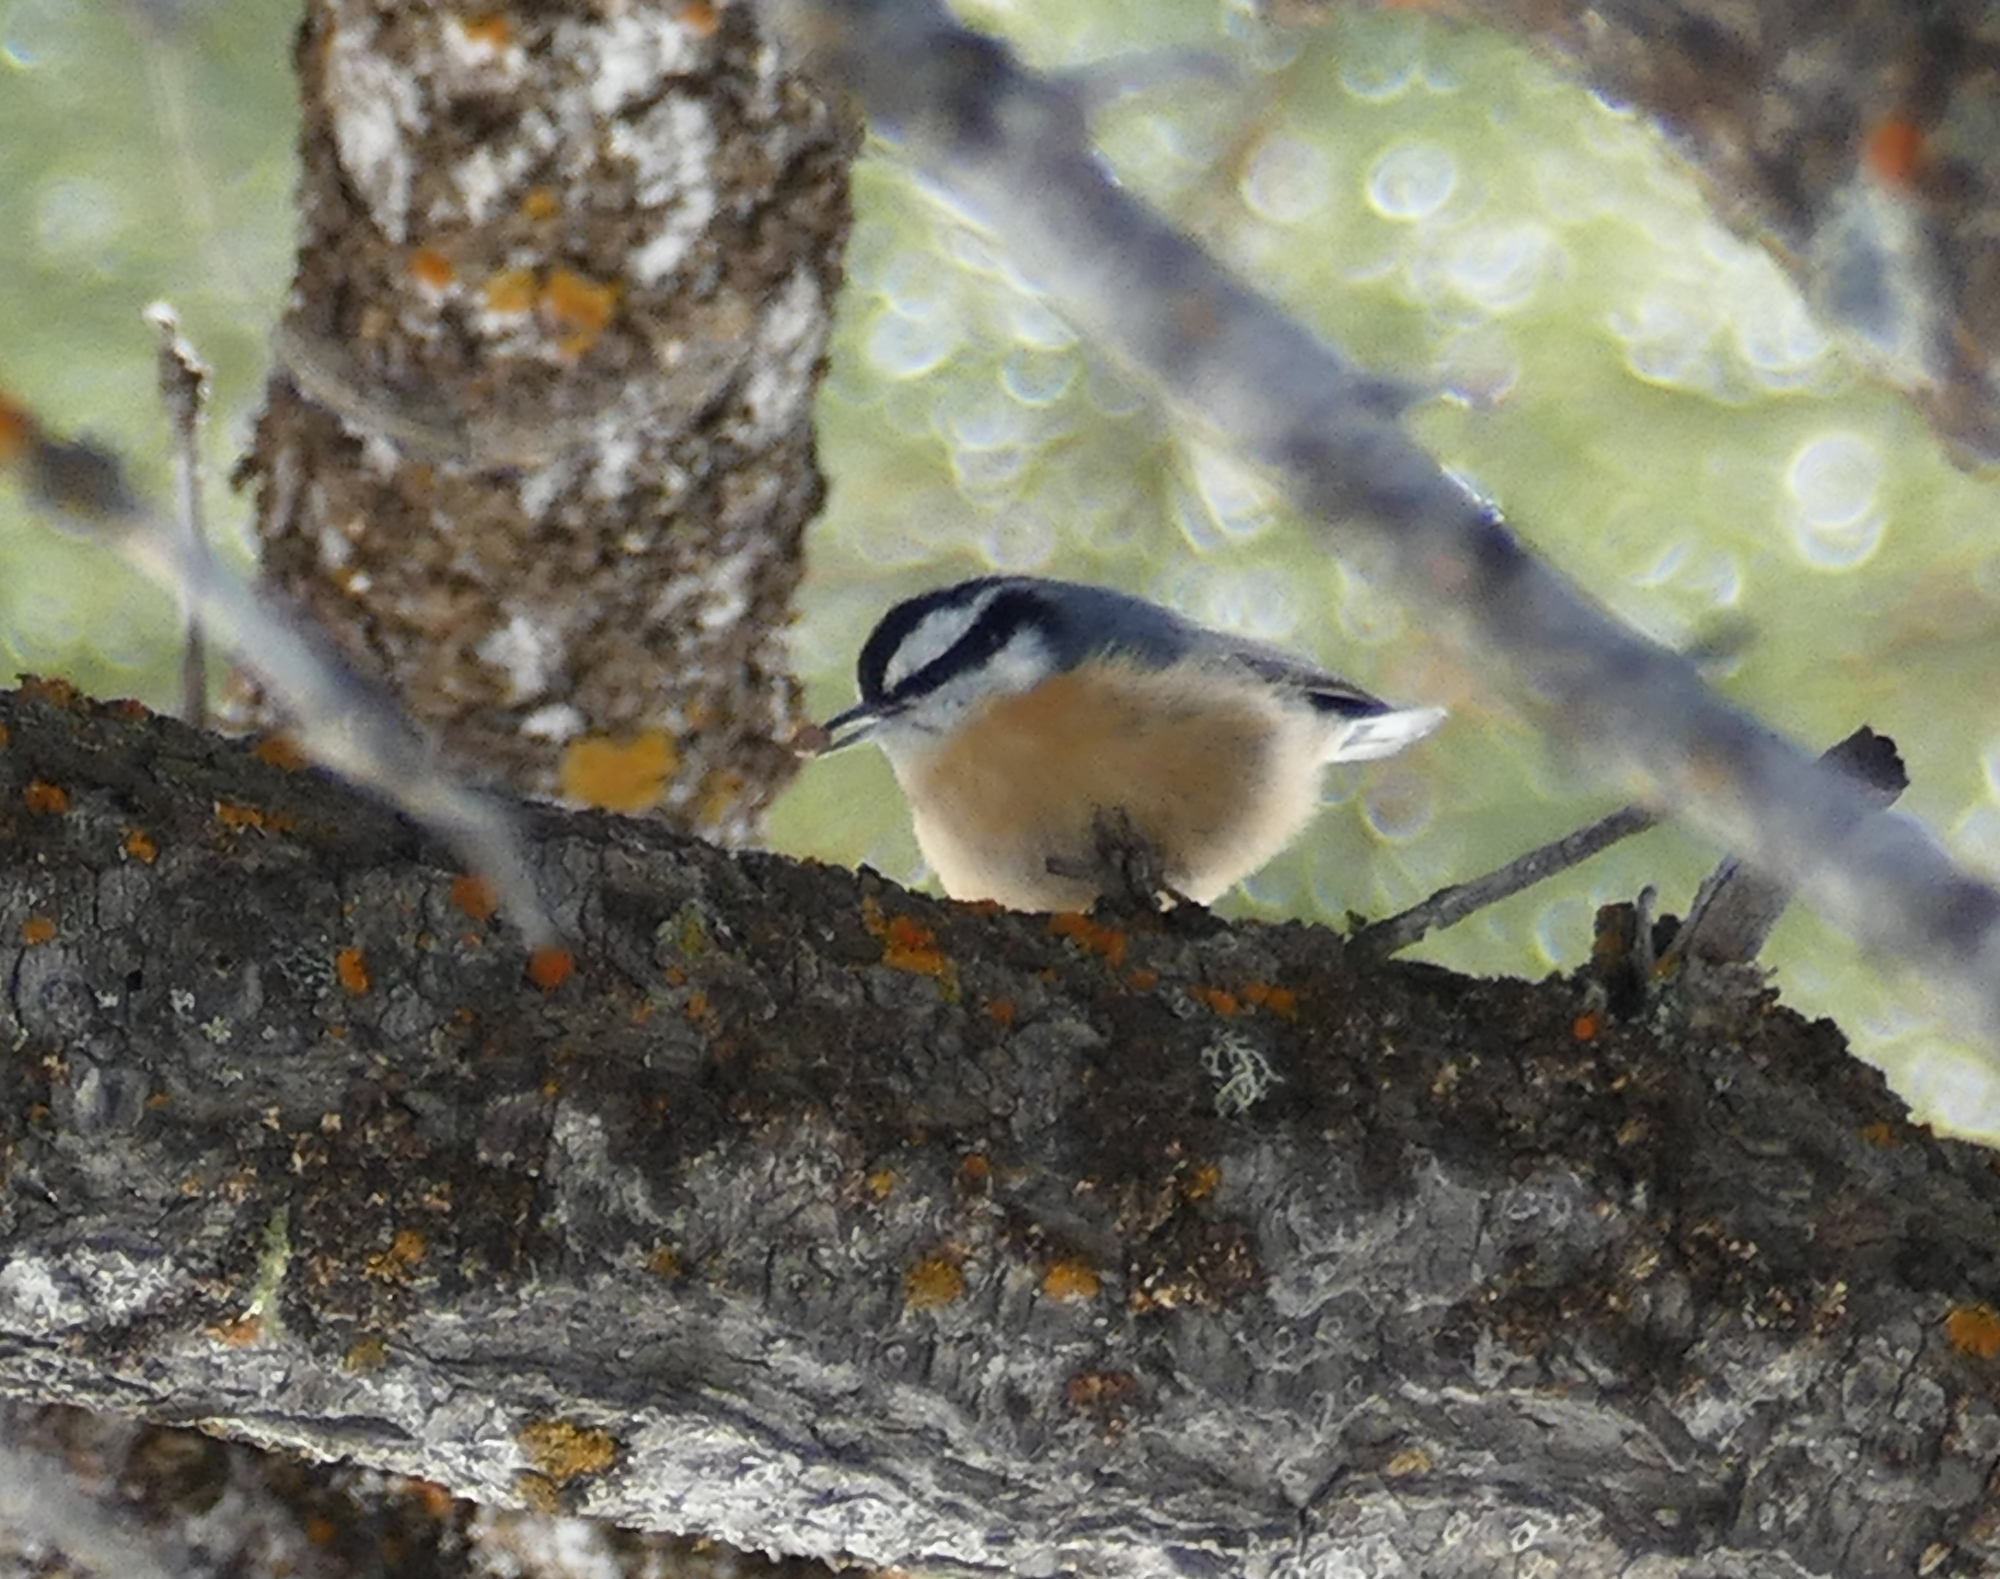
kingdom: Animalia
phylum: Chordata
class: Aves
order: Passeriformes
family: Sittidae
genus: Sitta
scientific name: Sitta canadensis
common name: Red-breasted nuthatch
